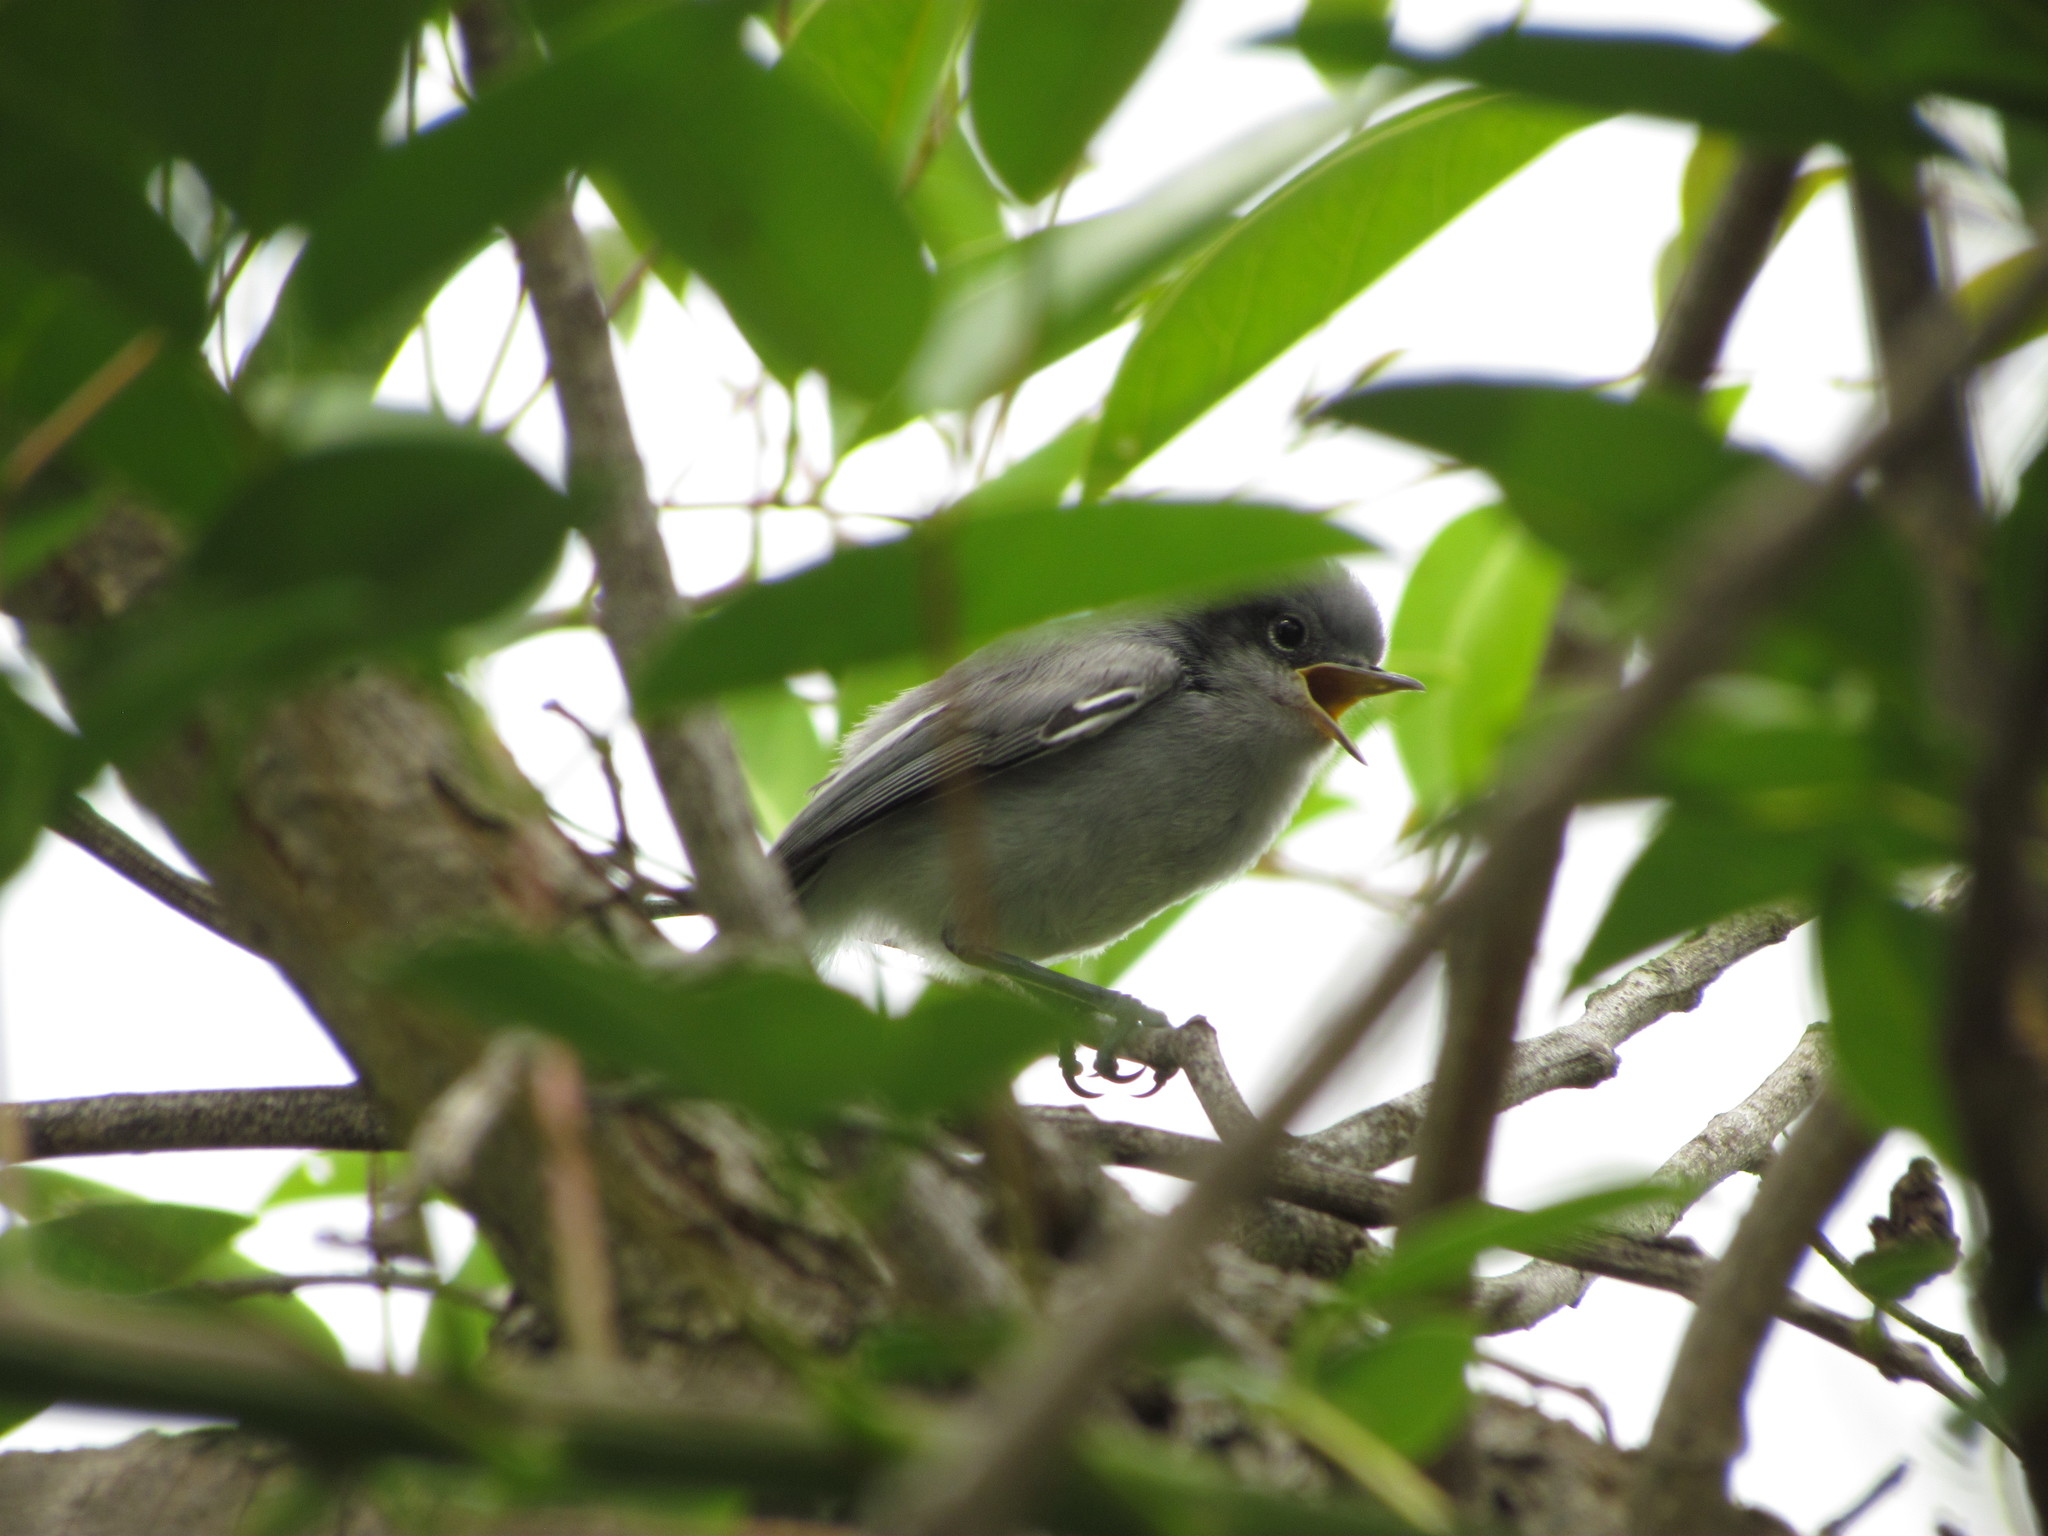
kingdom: Animalia
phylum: Chordata
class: Aves
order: Passeriformes
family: Polioptilidae
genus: Polioptila
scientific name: Polioptila dumicola
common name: Masked gnatcatcher
